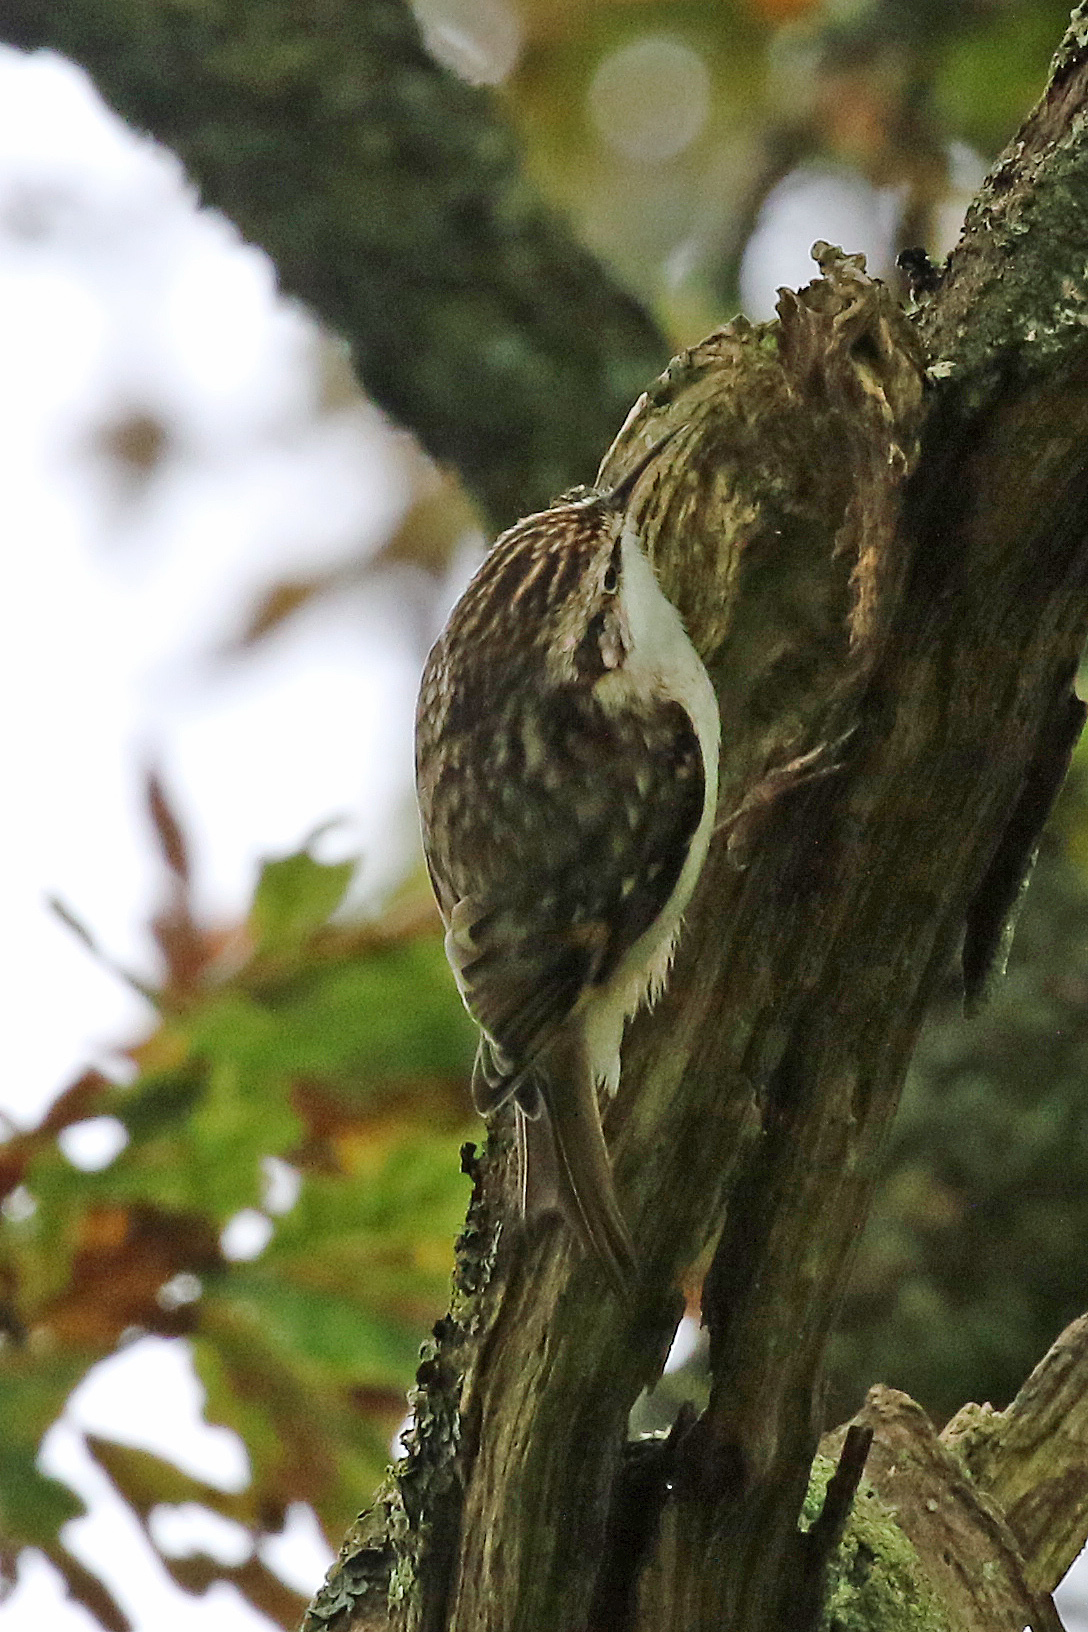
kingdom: Animalia
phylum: Chordata
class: Aves
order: Passeriformes
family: Certhiidae
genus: Certhia
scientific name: Certhia familiaris
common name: Eurasian treecreeper
